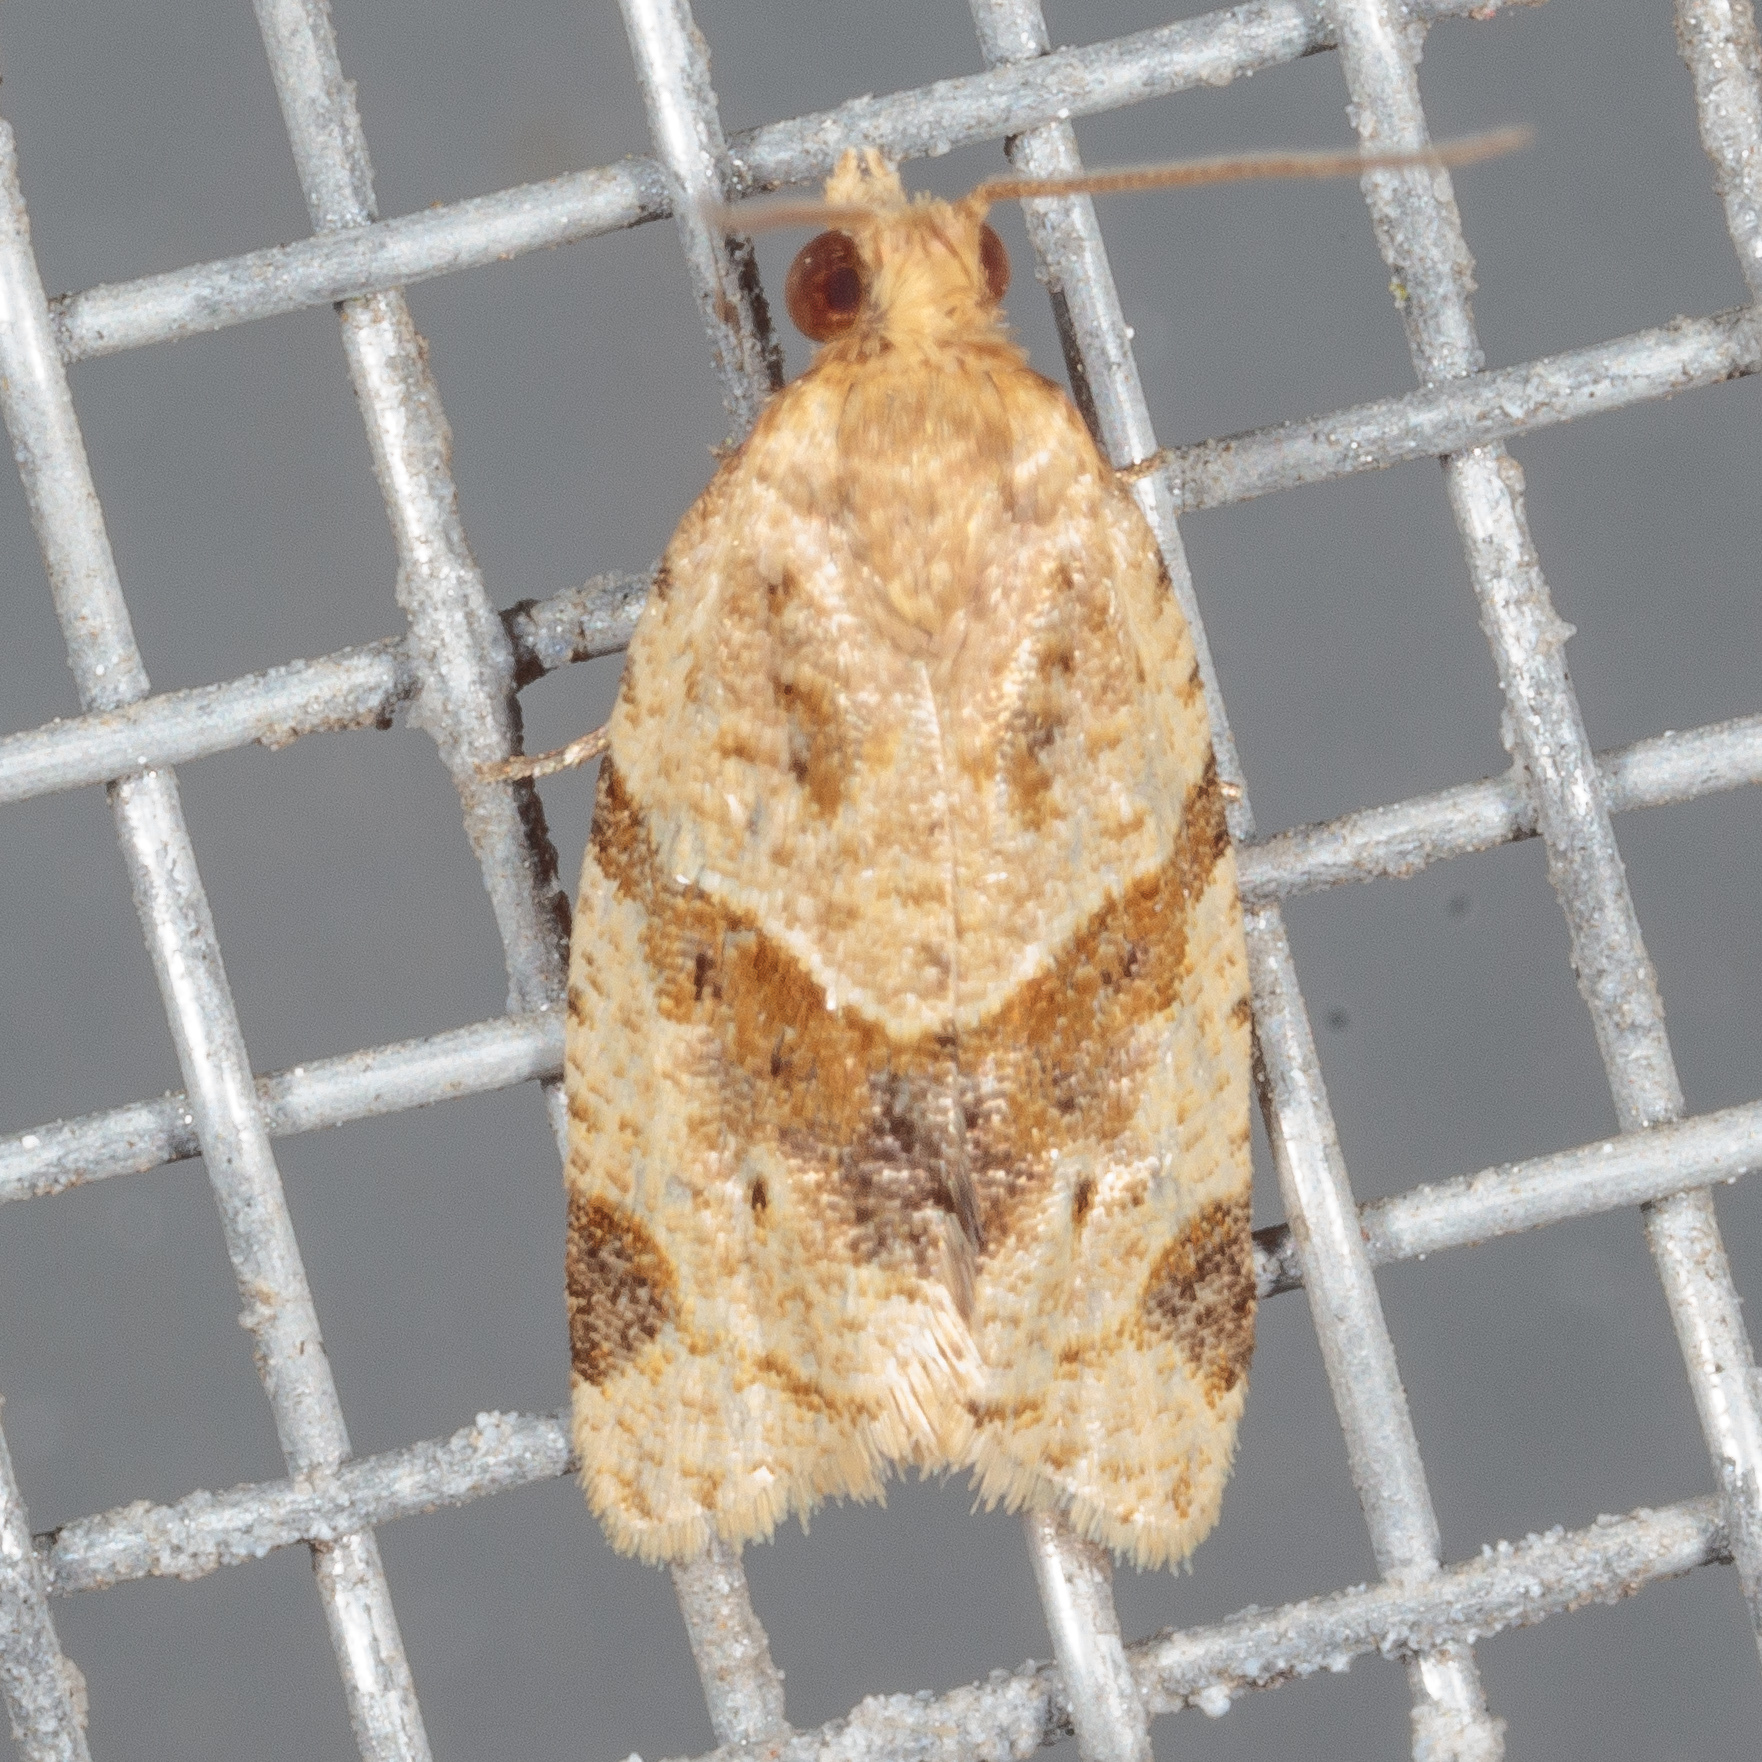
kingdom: Animalia
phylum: Arthropoda
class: Insecta
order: Lepidoptera
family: Tortricidae
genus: Clepsis
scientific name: Clepsis peritana
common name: Garden tortrix
